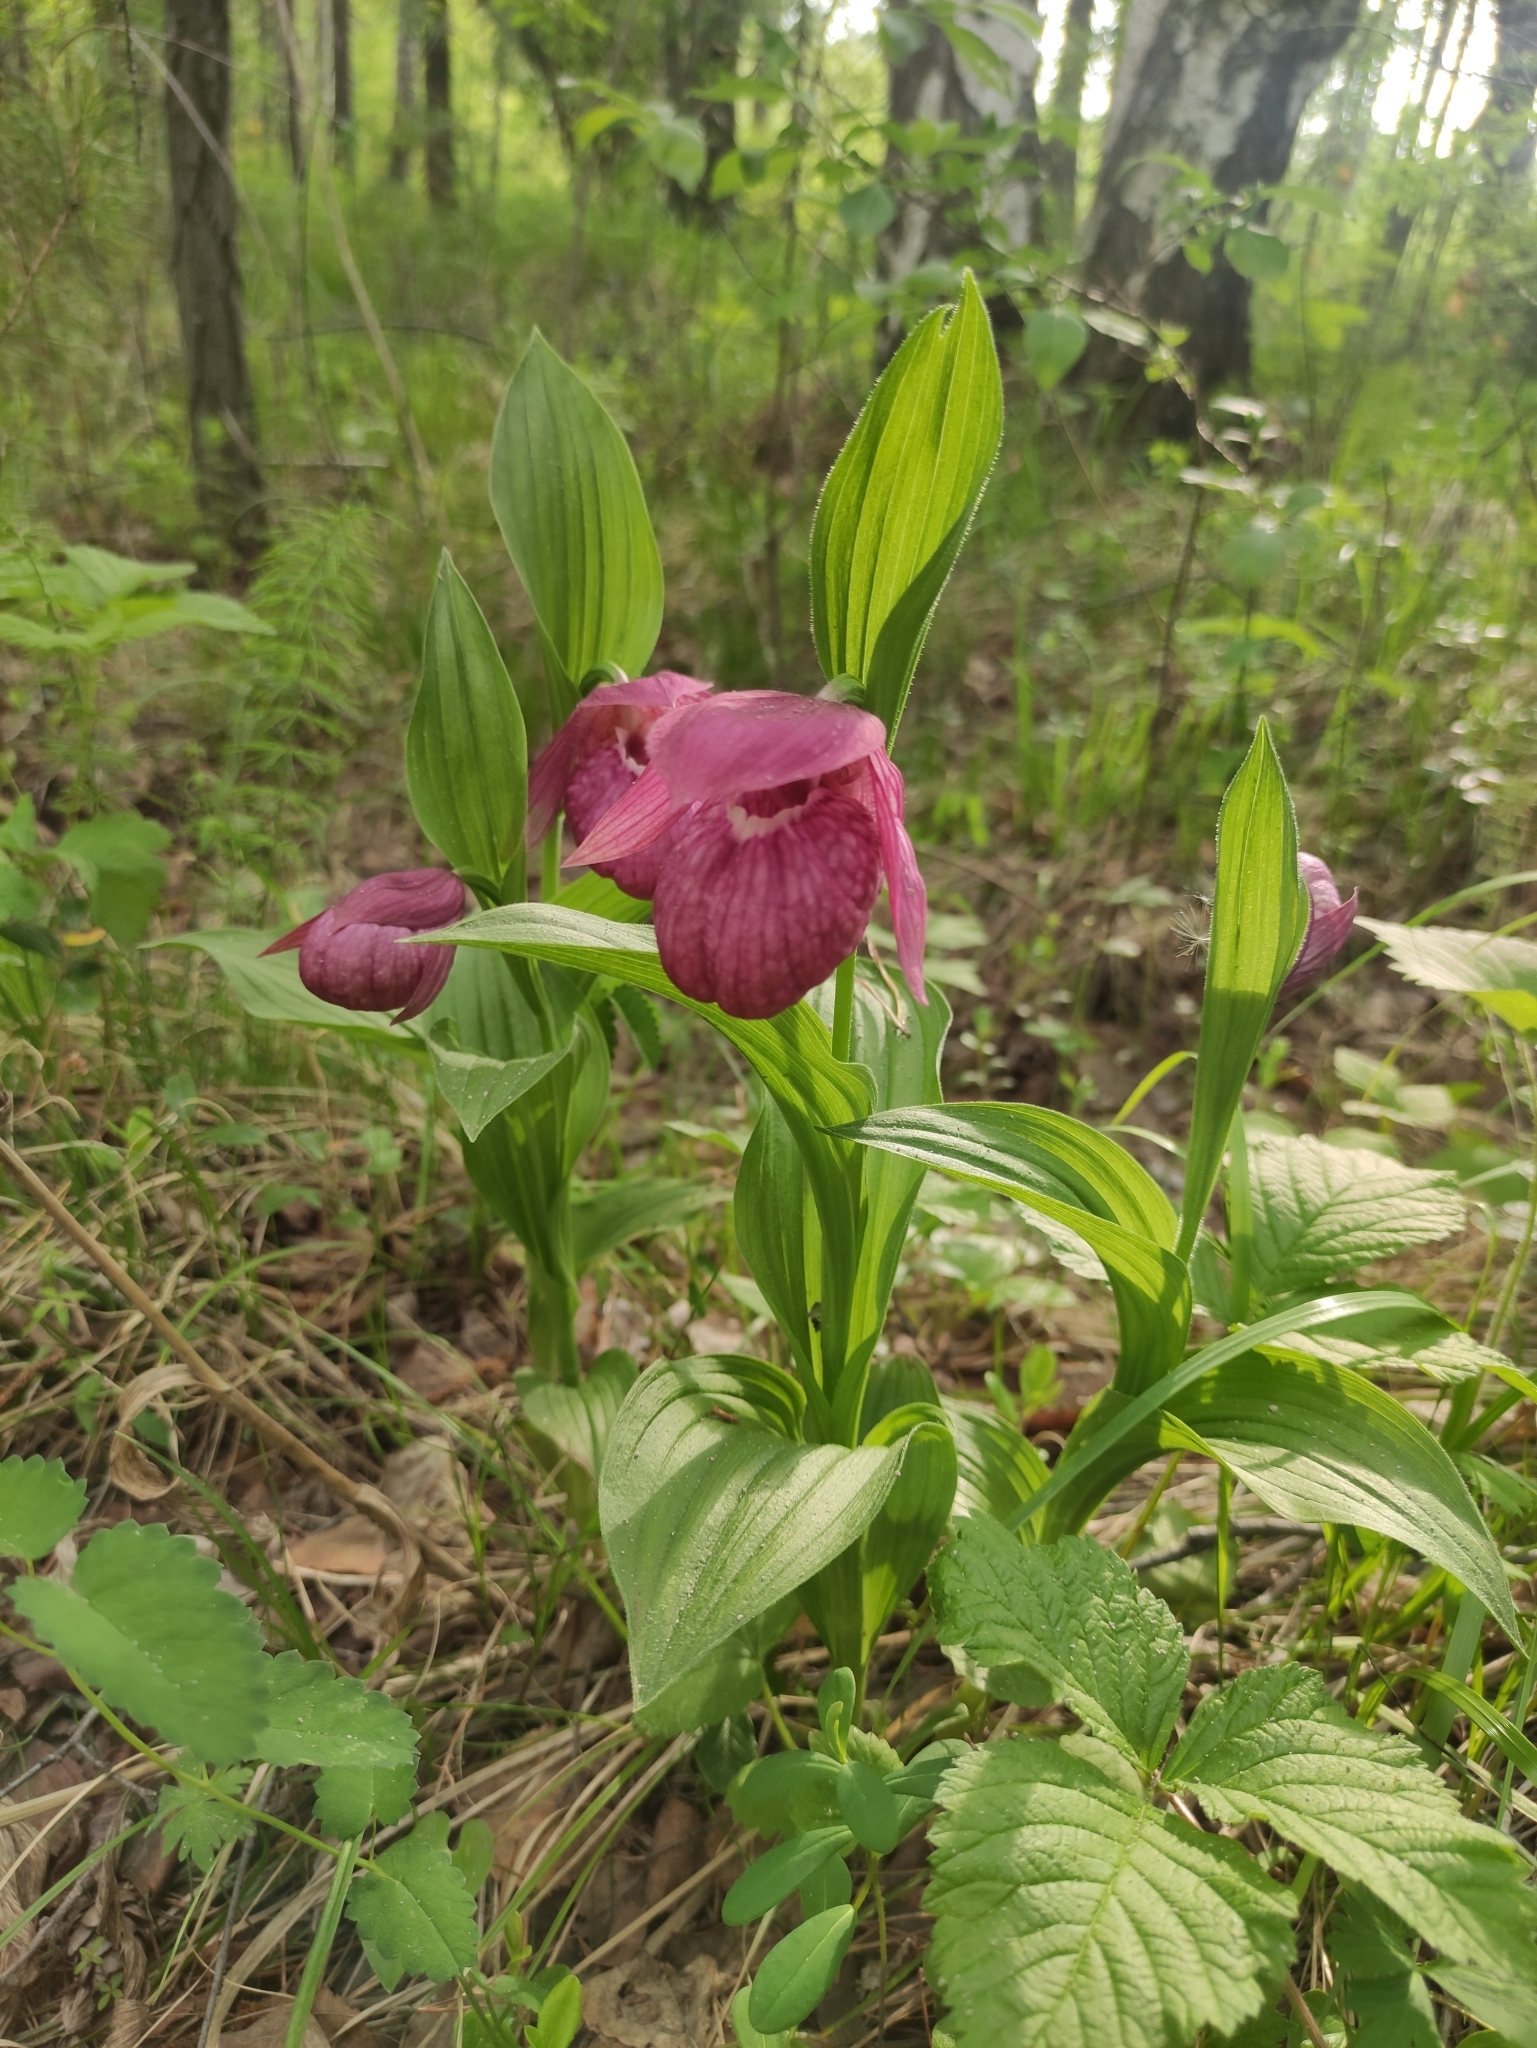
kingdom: Plantae
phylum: Tracheophyta
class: Liliopsida
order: Asparagales
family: Orchidaceae
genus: Cypripedium
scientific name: Cypripedium macranthos
